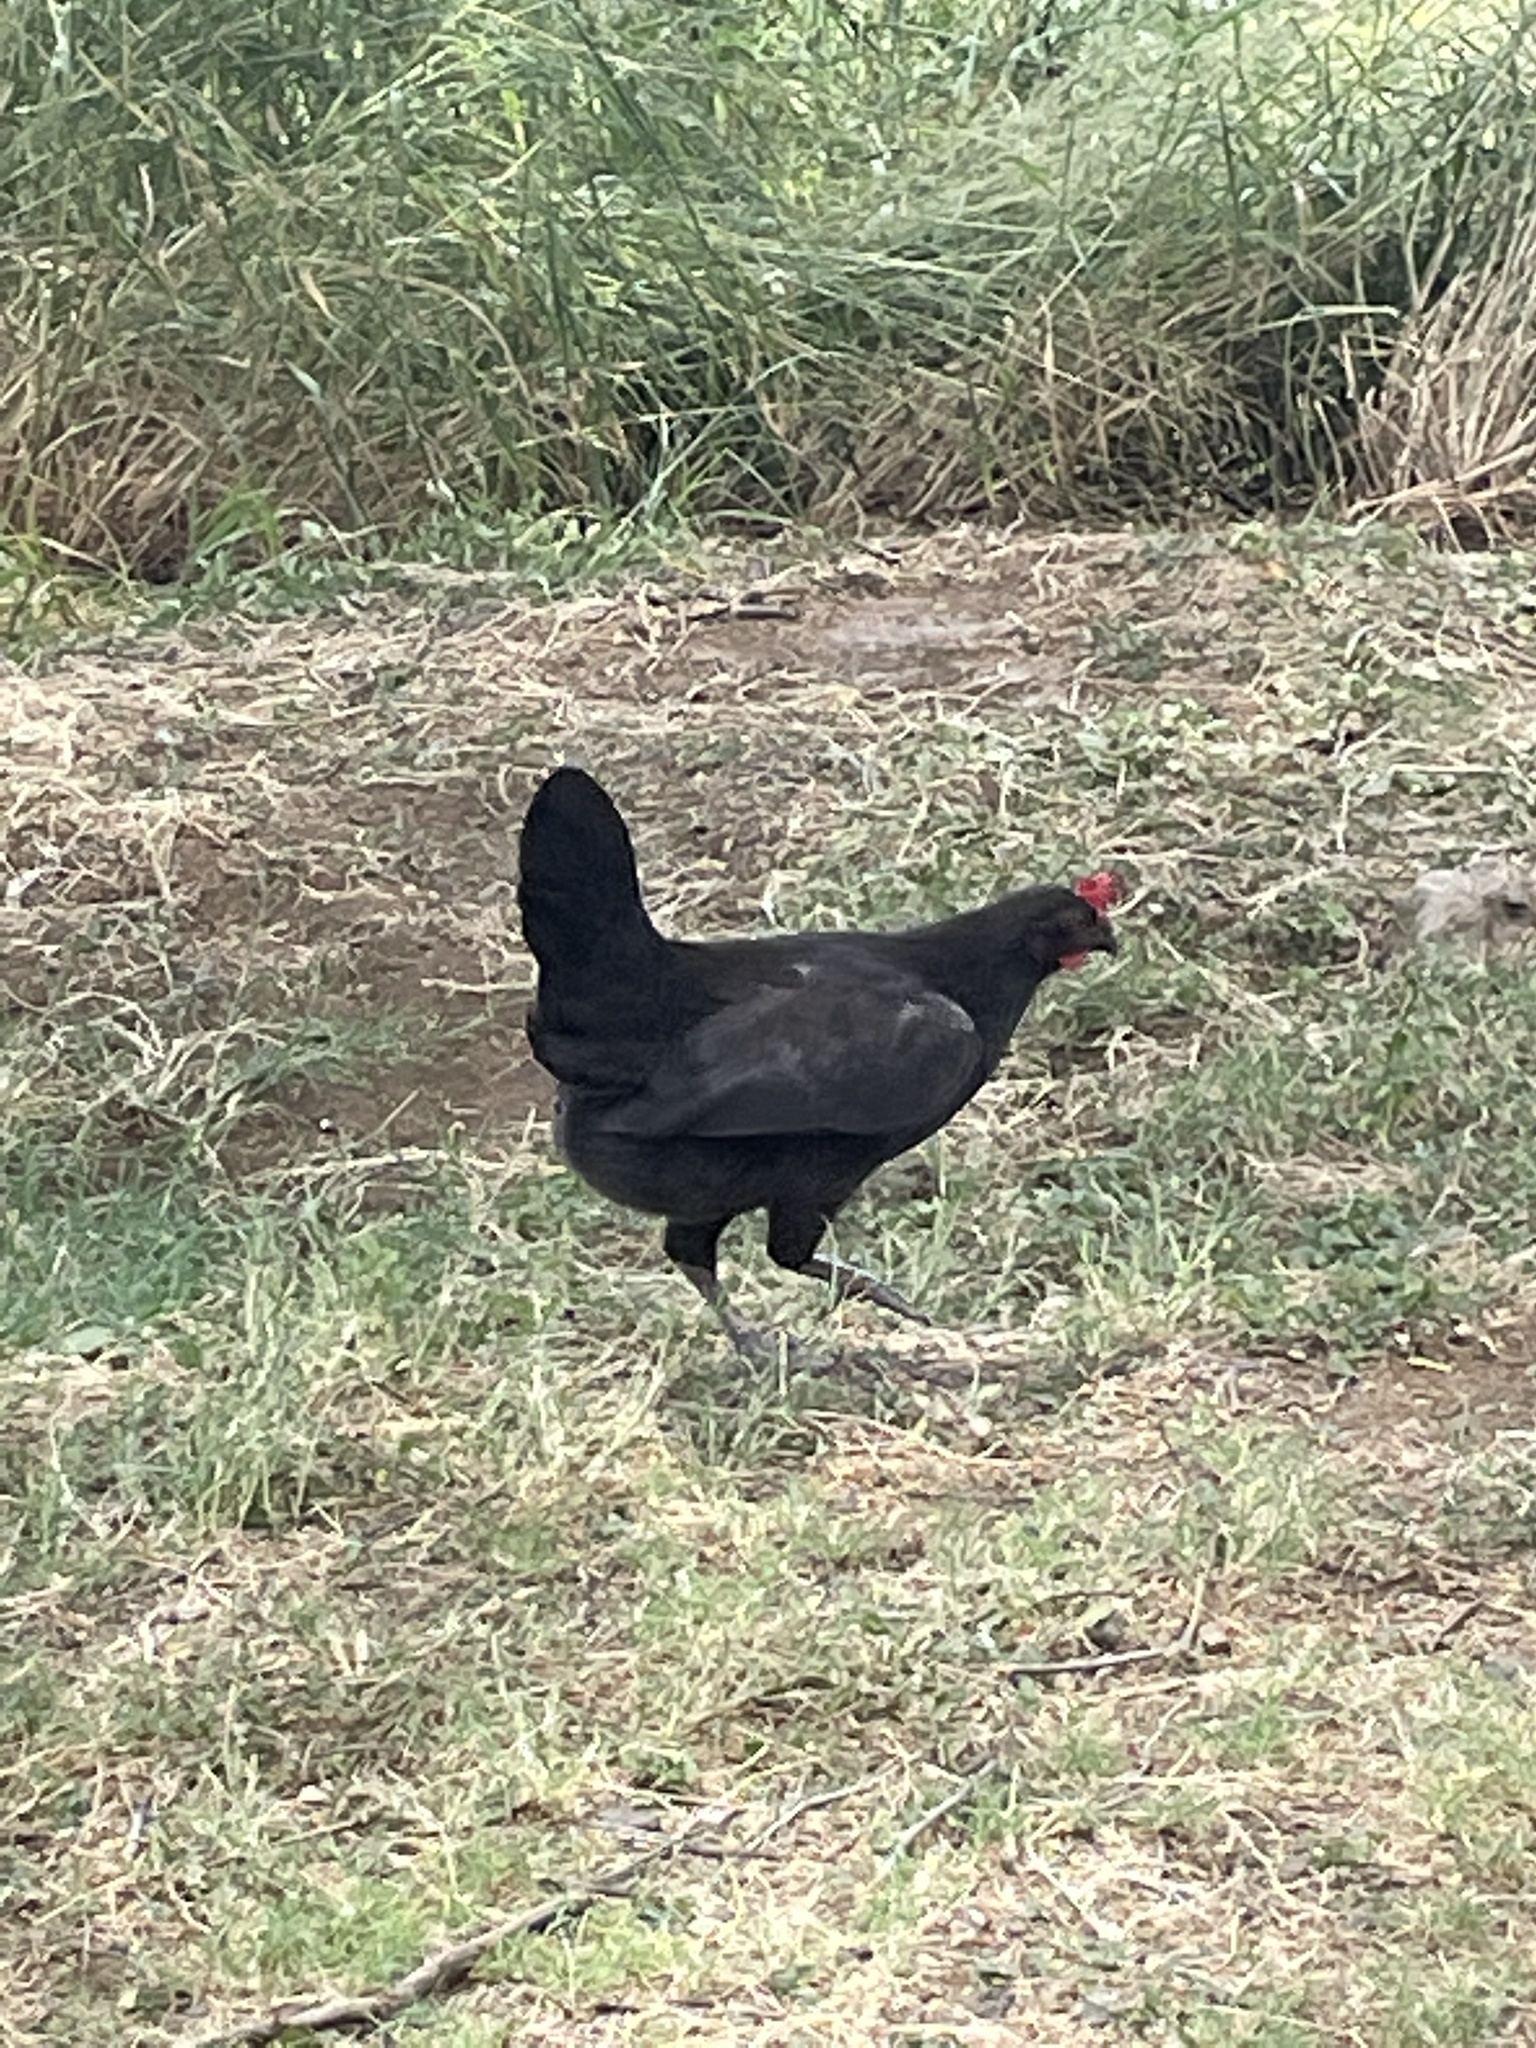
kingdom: Animalia
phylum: Chordata
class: Aves
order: Galliformes
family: Phasianidae
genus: Gallus
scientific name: Gallus gallus
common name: Red junglefowl
